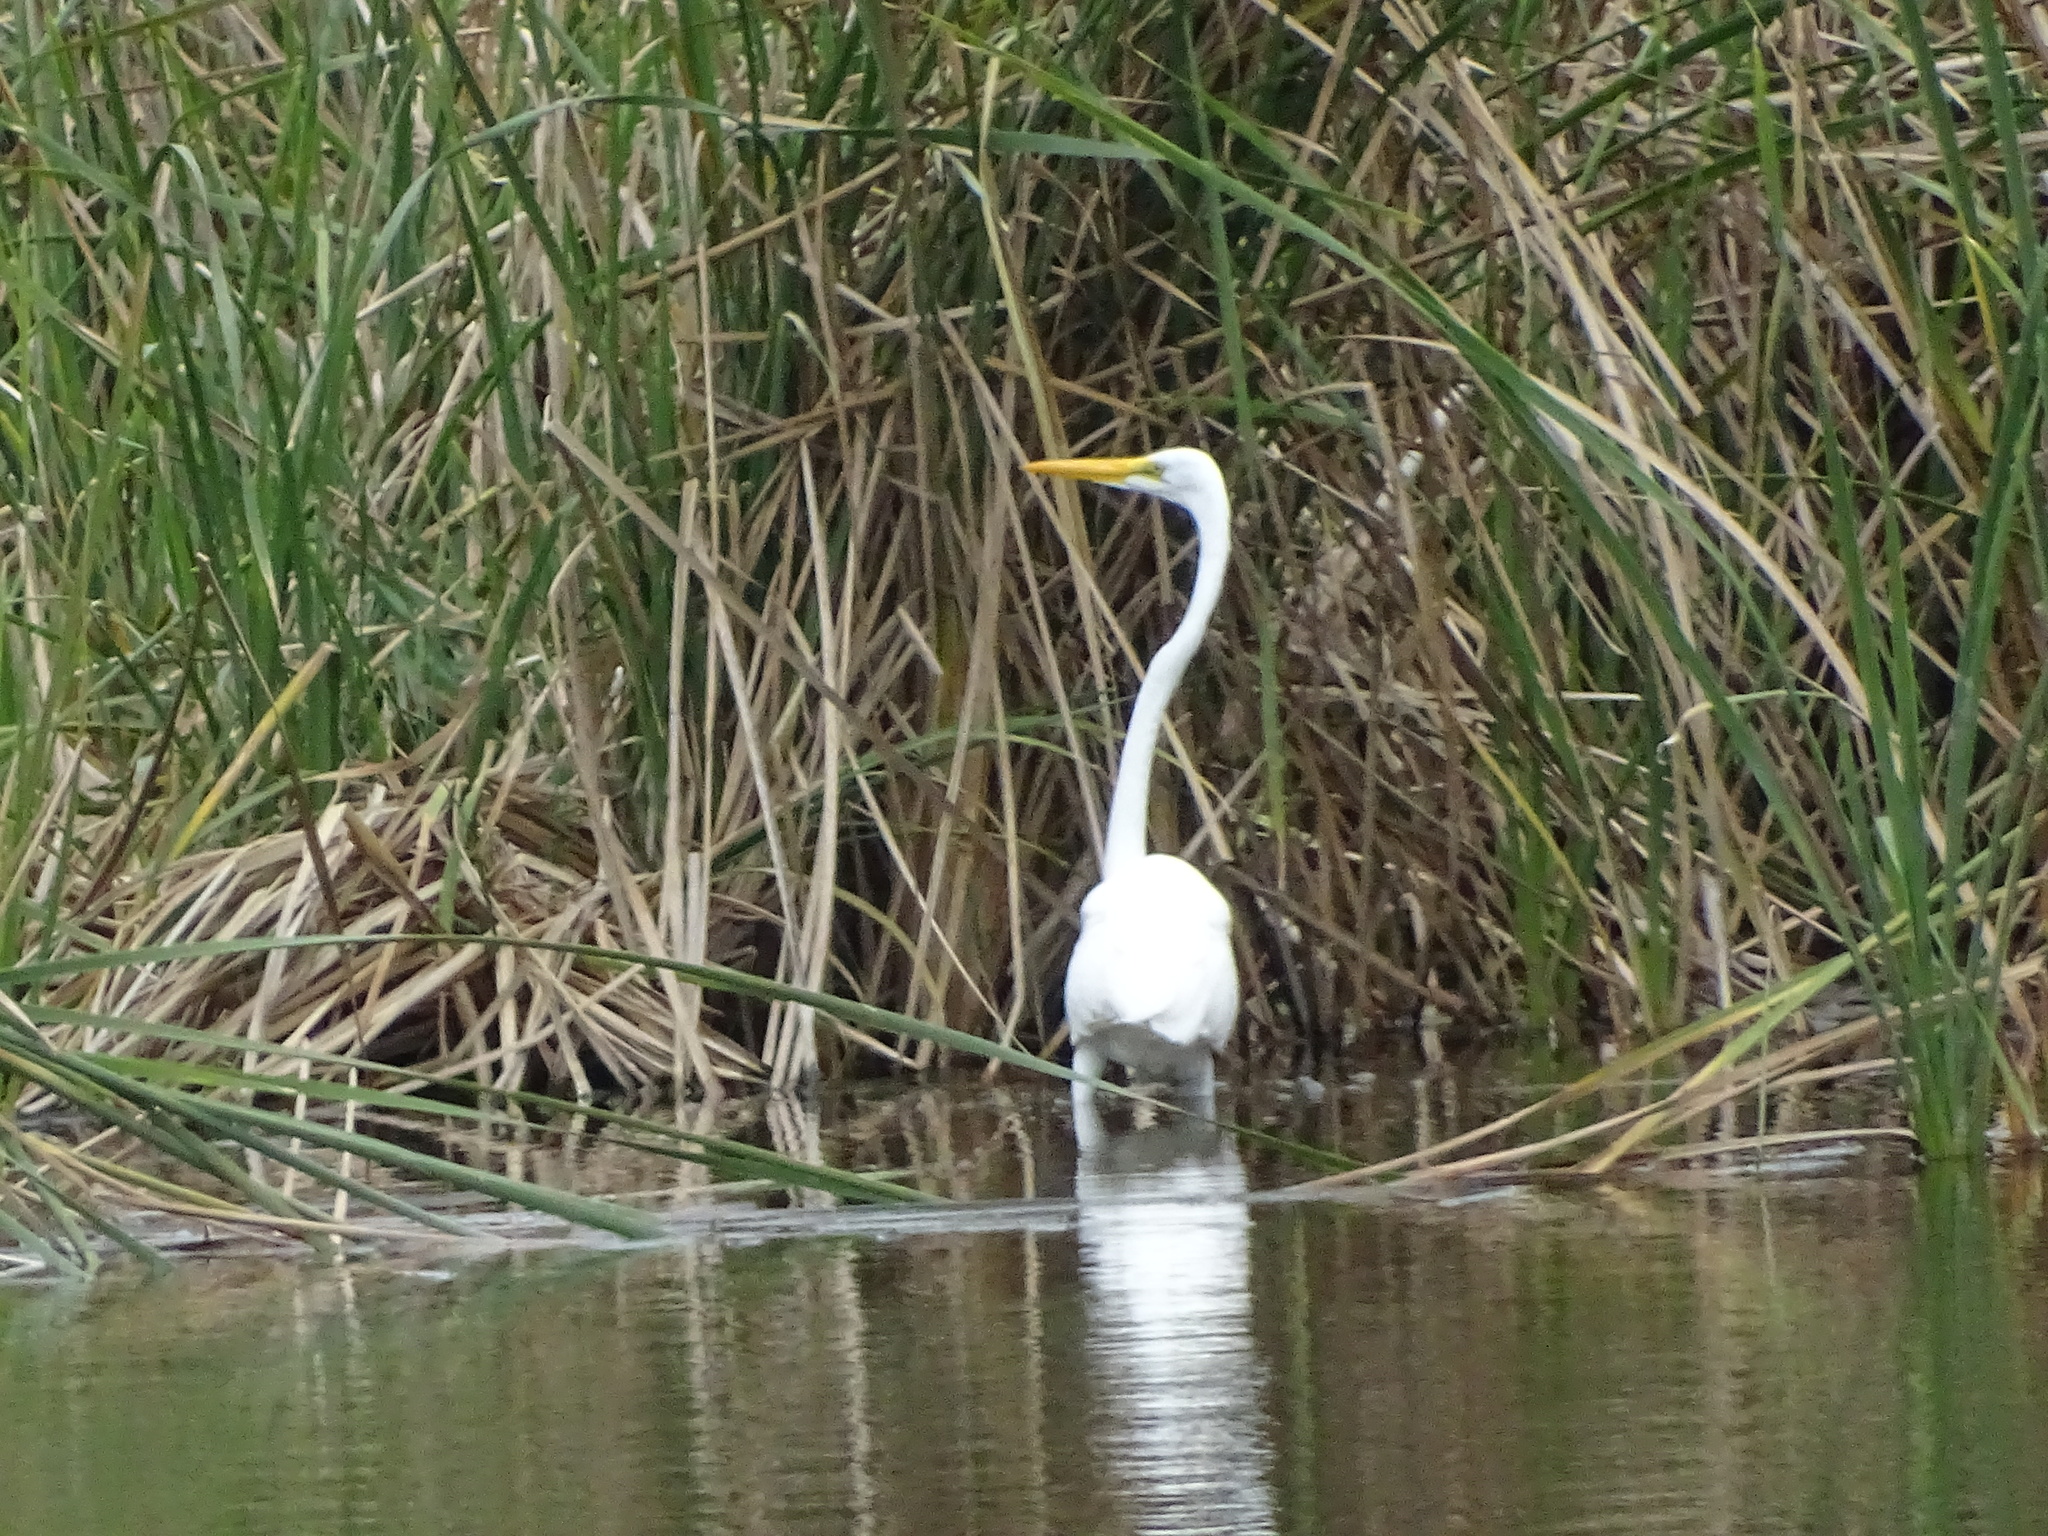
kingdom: Animalia
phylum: Chordata
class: Aves
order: Pelecaniformes
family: Ardeidae
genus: Ardea
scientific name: Ardea alba
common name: Great egret
